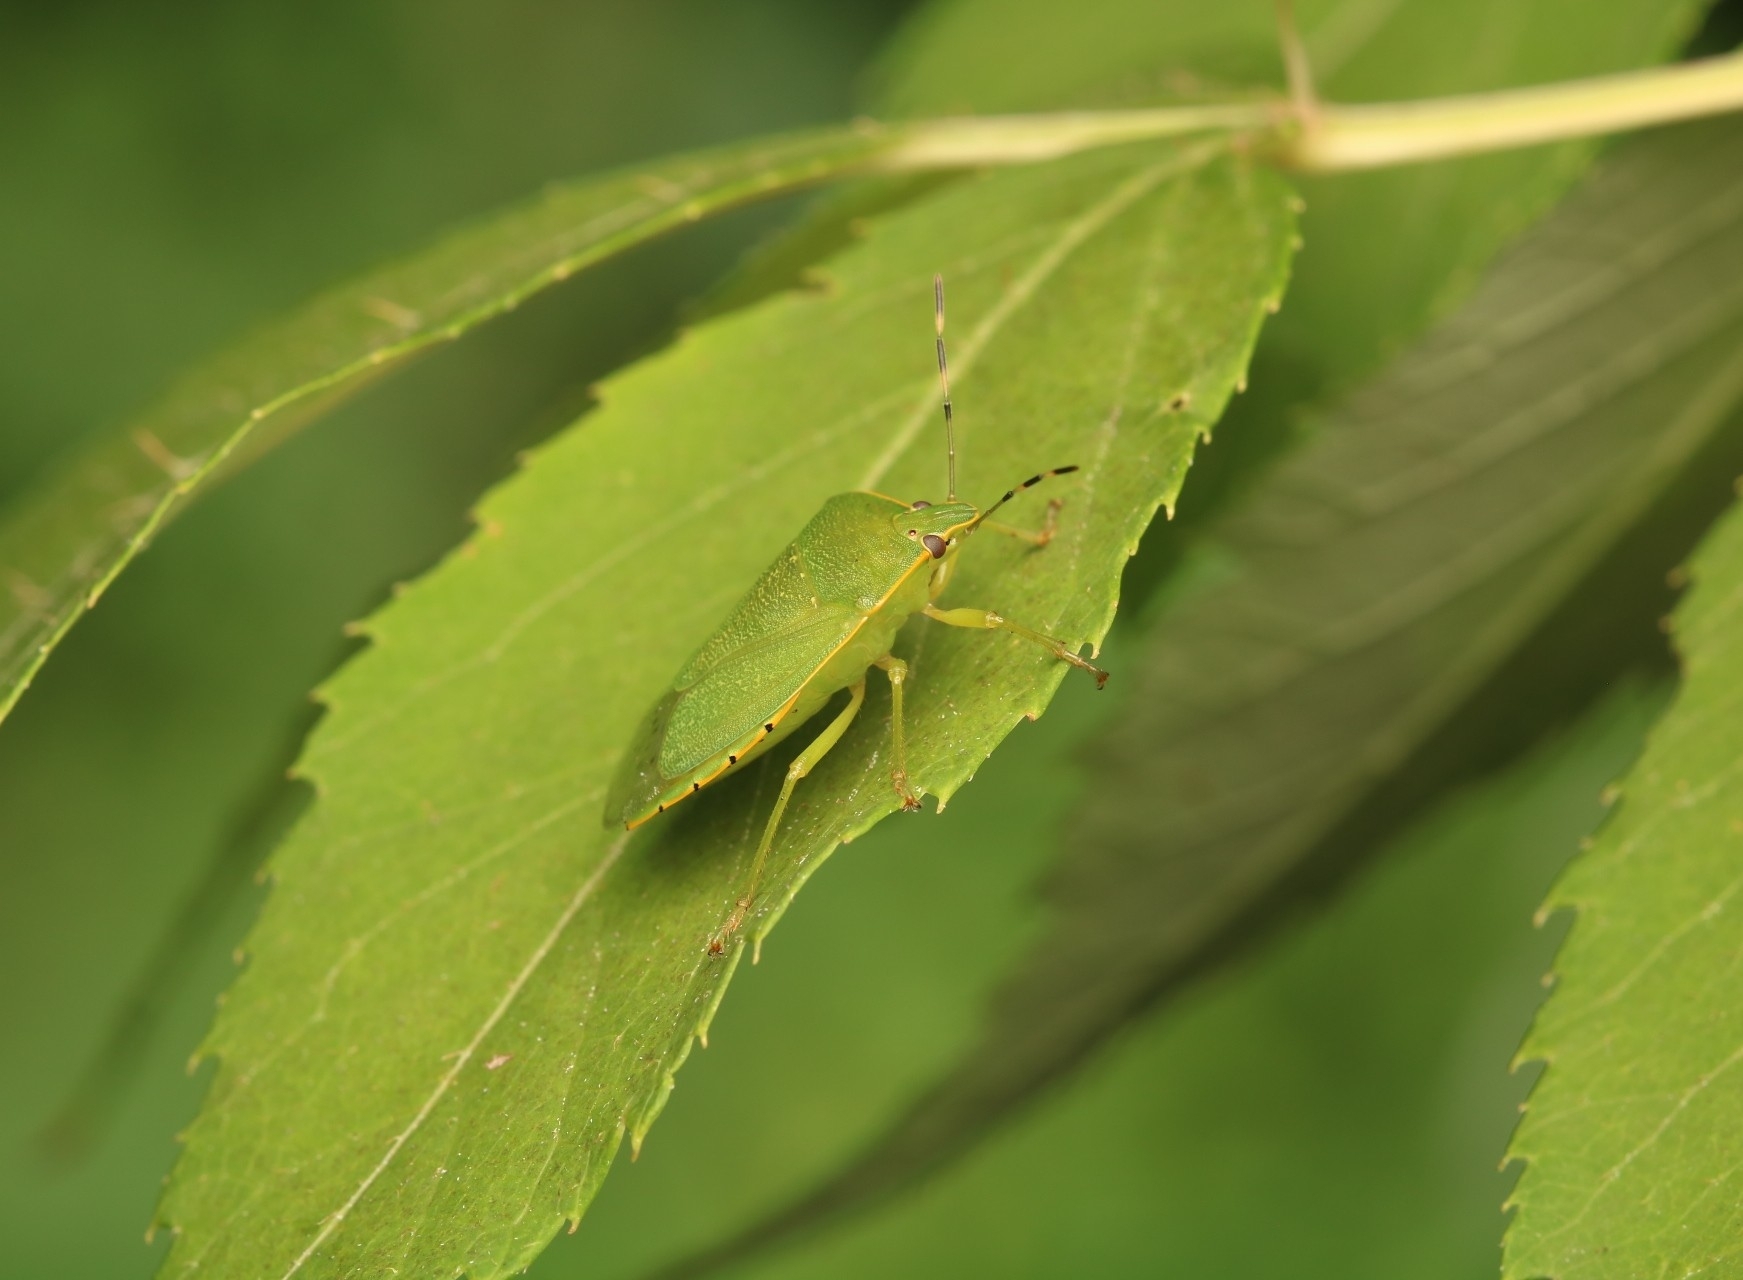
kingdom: Animalia
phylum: Arthropoda
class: Insecta
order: Hemiptera
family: Pentatomidae
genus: Chinavia
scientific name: Chinavia hilaris
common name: Green stink bug
